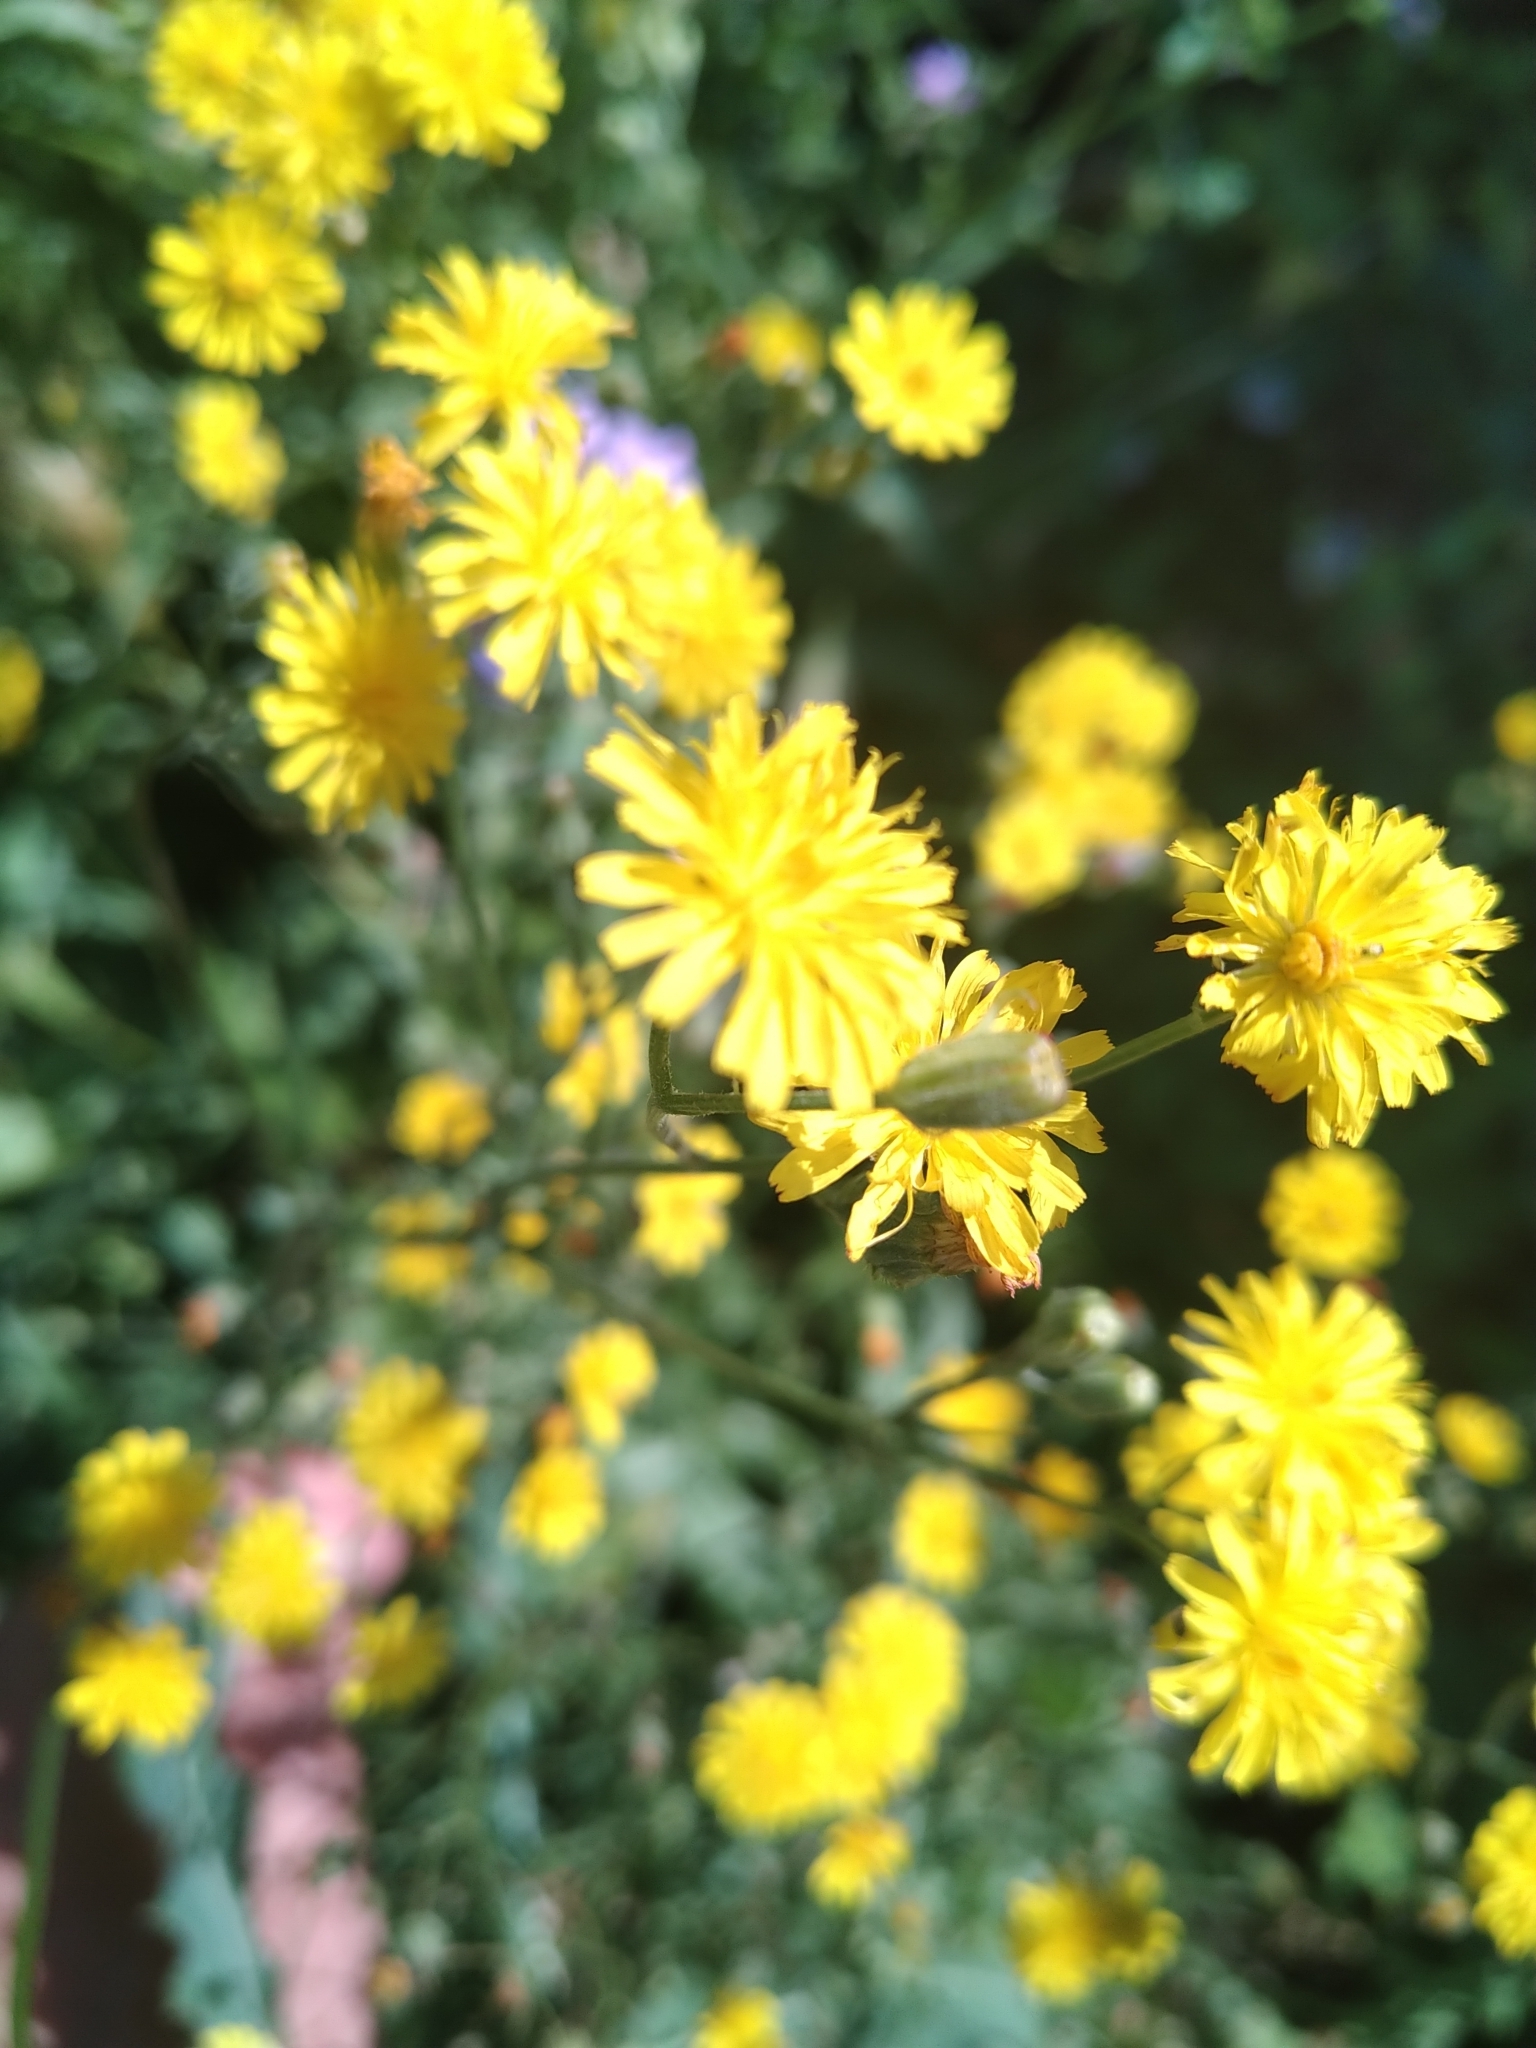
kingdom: Plantae
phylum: Tracheophyta
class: Magnoliopsida
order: Asterales
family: Asteraceae
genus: Crepis
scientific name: Crepis capillaris
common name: Smooth hawksbeard
